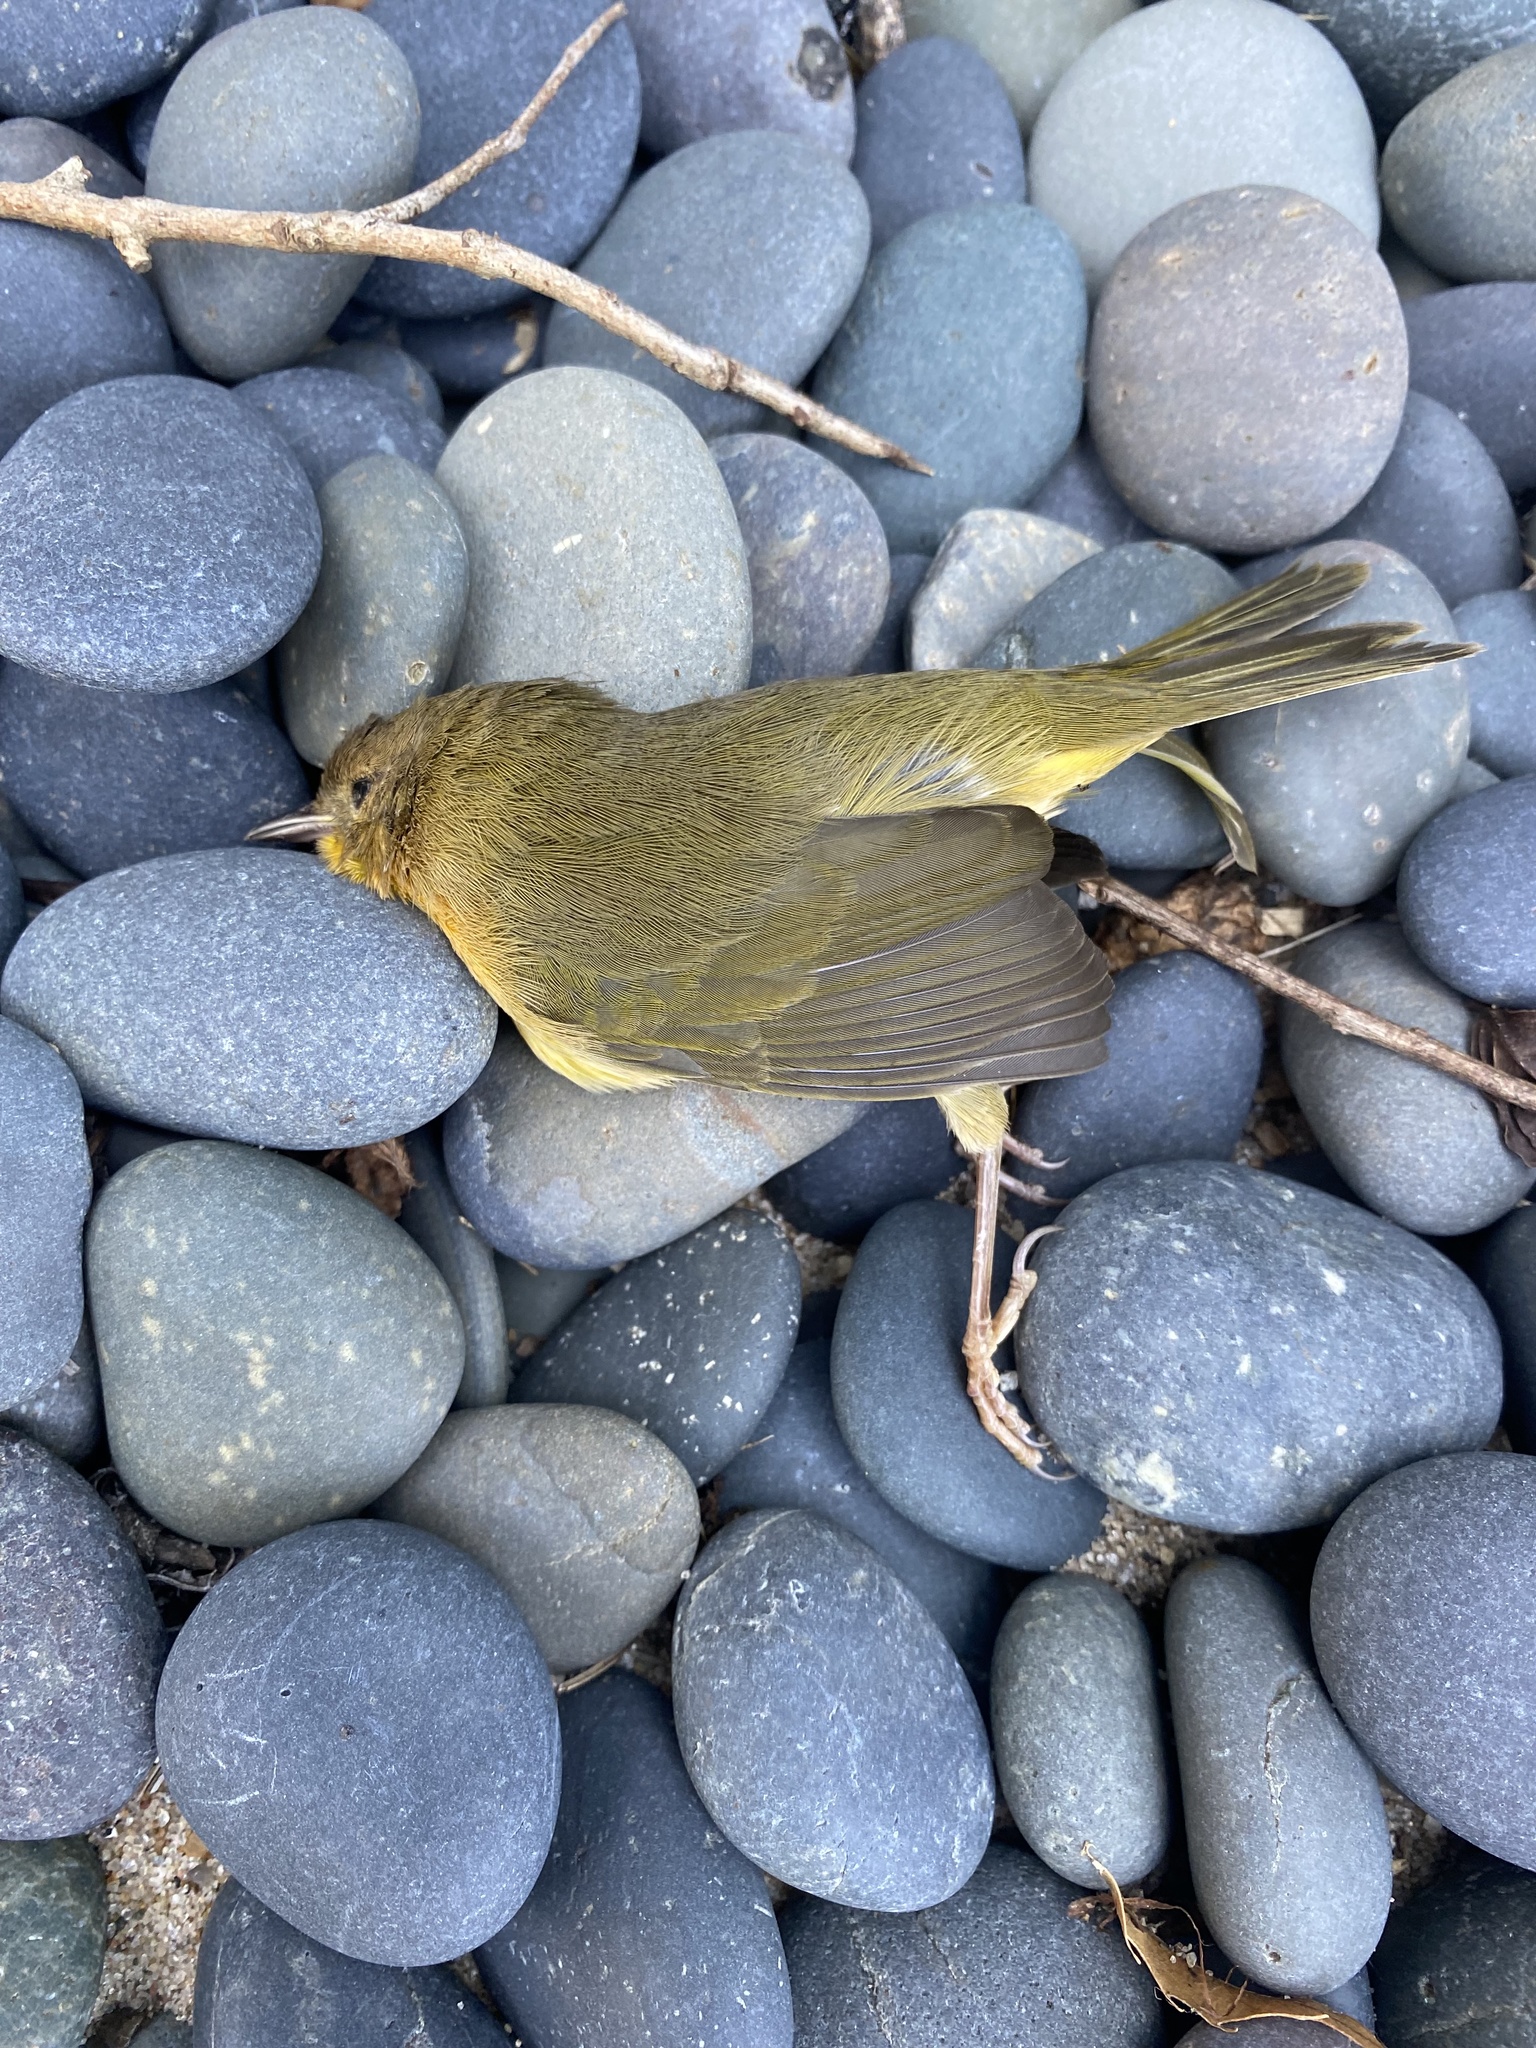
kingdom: Animalia
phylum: Chordata
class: Aves
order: Passeriformes
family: Parulidae
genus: Geothlypis
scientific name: Geothlypis trichas
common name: Common yellowthroat
